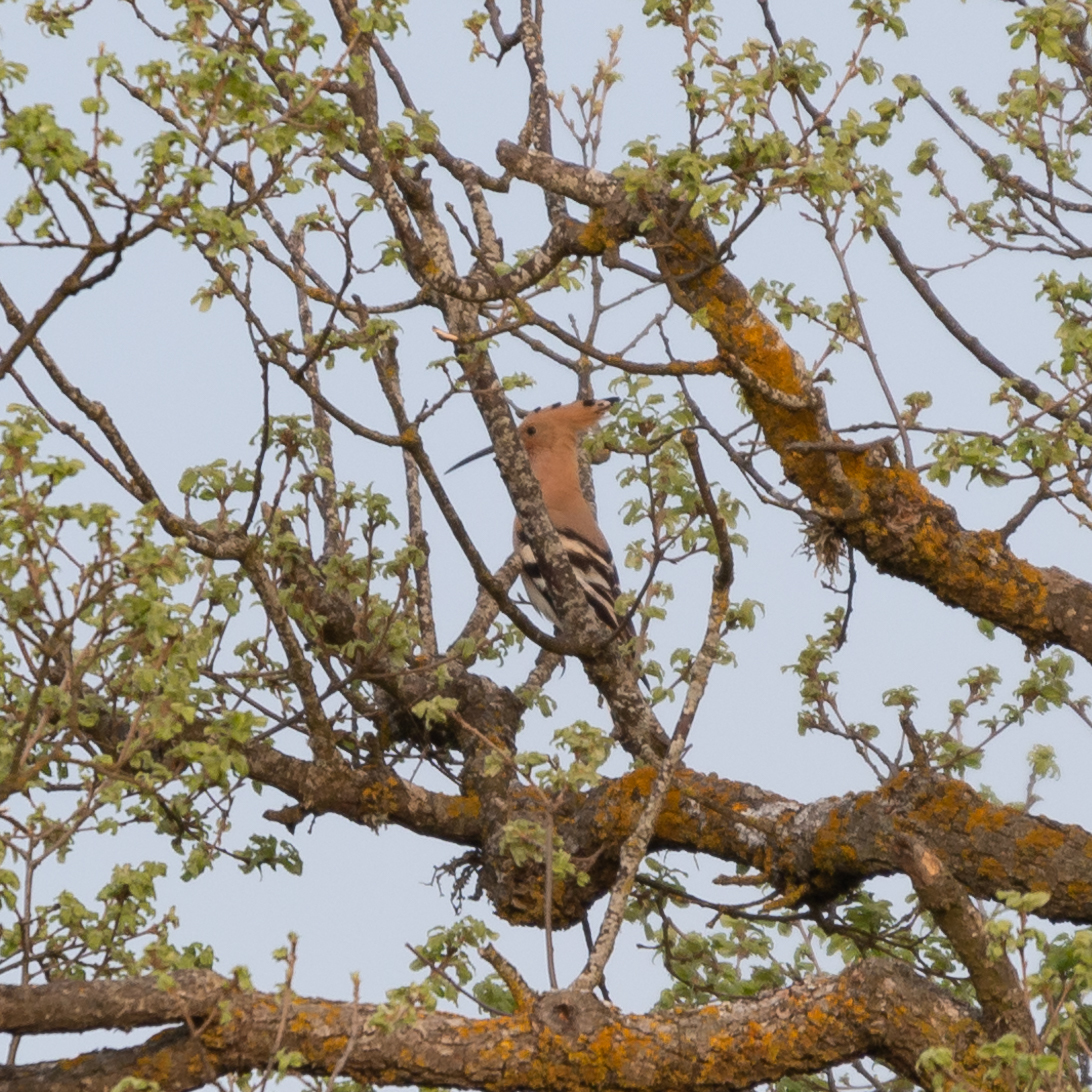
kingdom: Animalia
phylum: Chordata
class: Aves
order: Bucerotiformes
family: Upupidae
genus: Upupa
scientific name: Upupa epops
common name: Eurasian hoopoe
